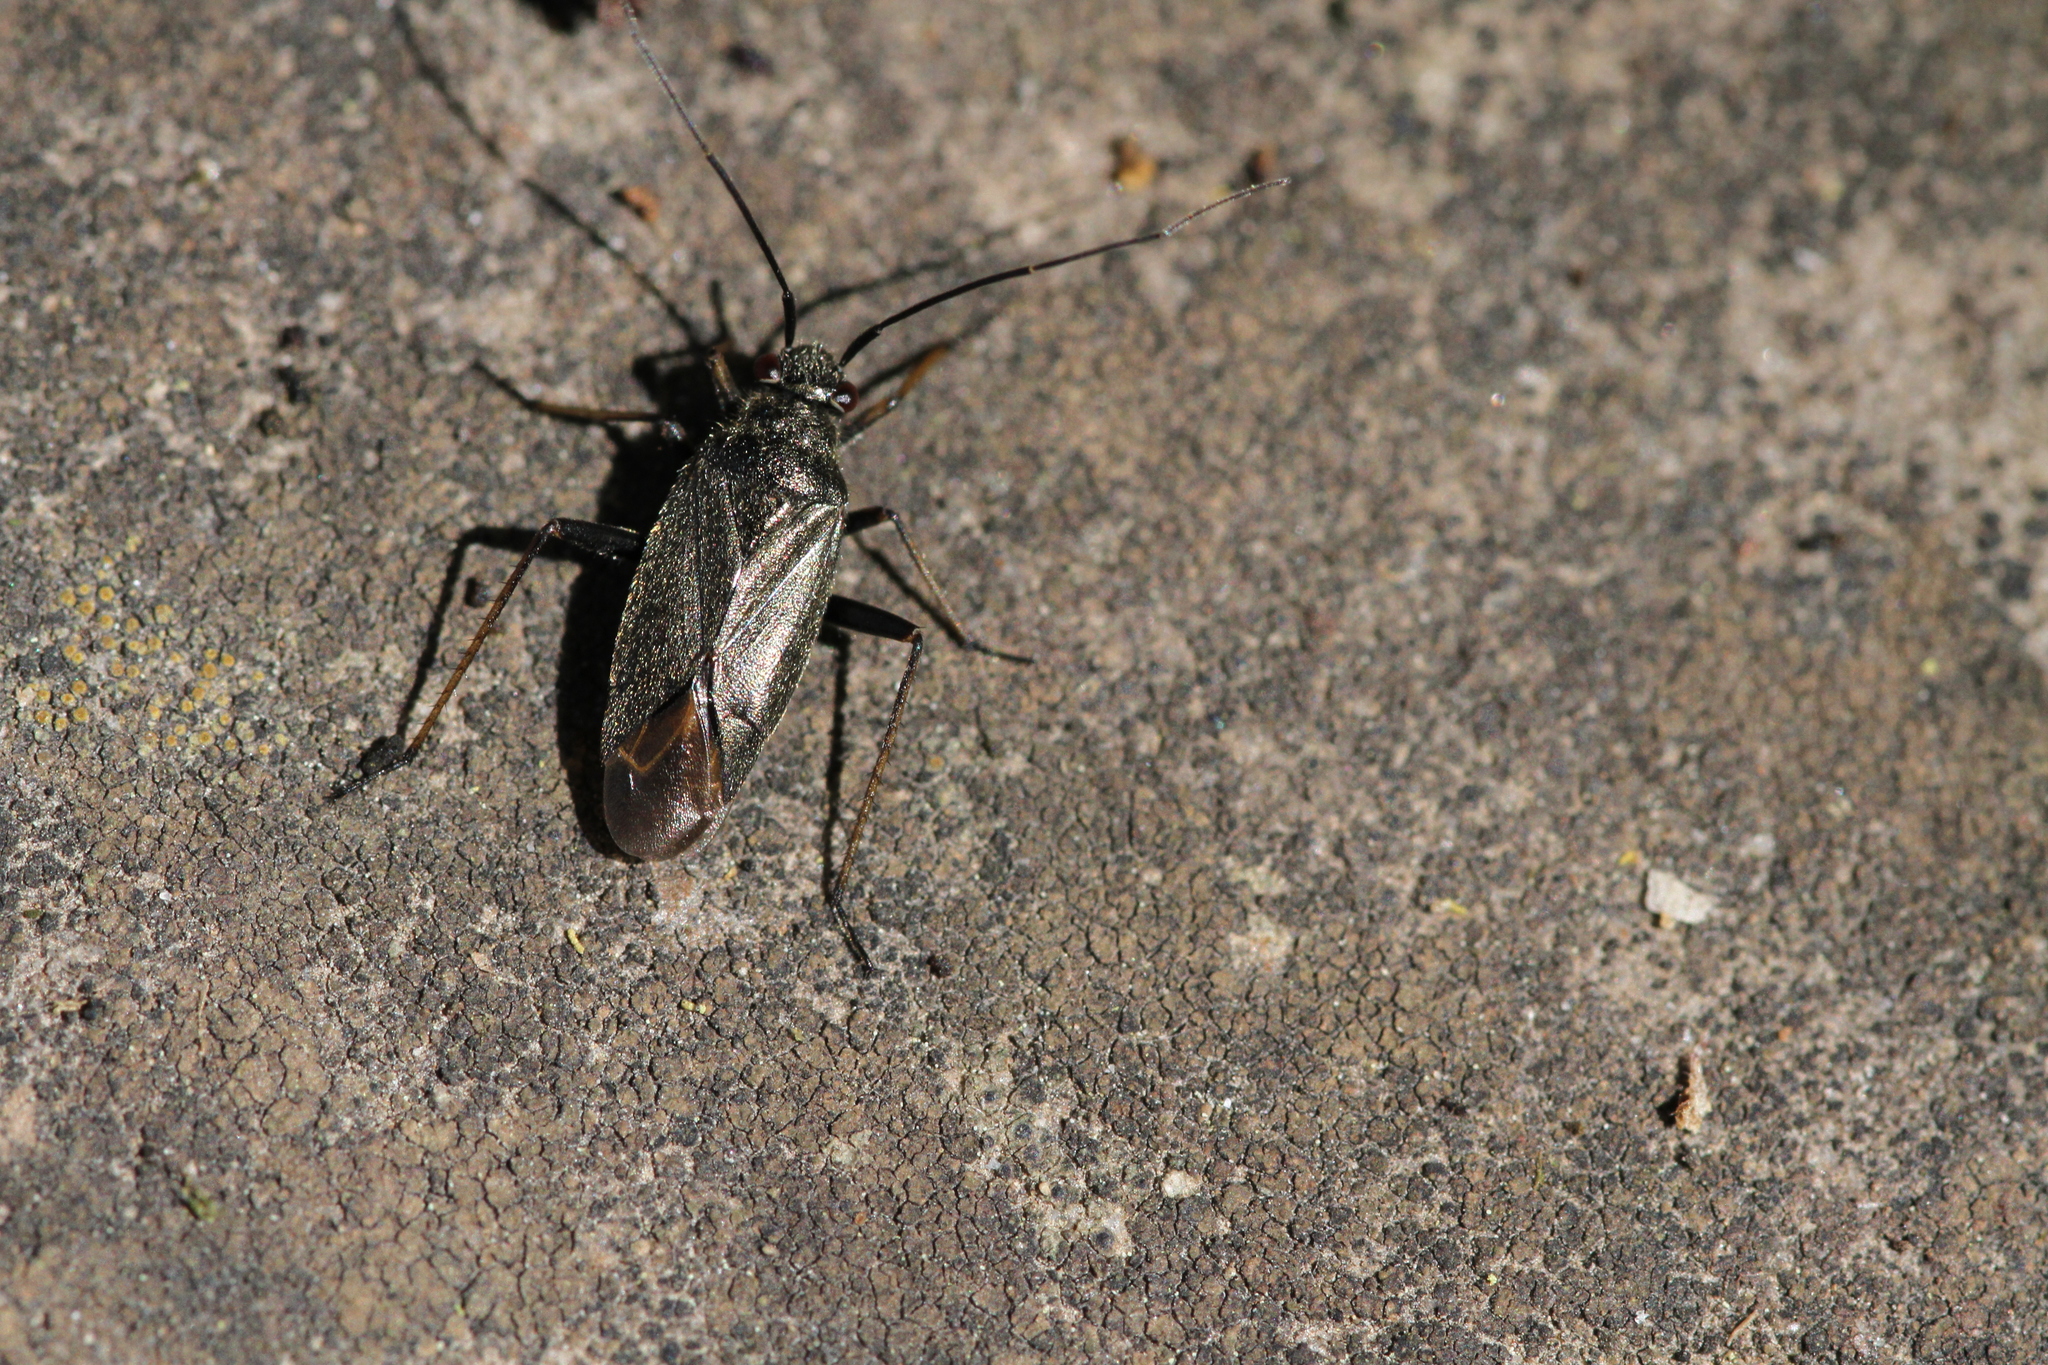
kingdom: Animalia
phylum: Arthropoda
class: Insecta
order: Hemiptera
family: Miridae
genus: Irbisia
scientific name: Irbisia californica
